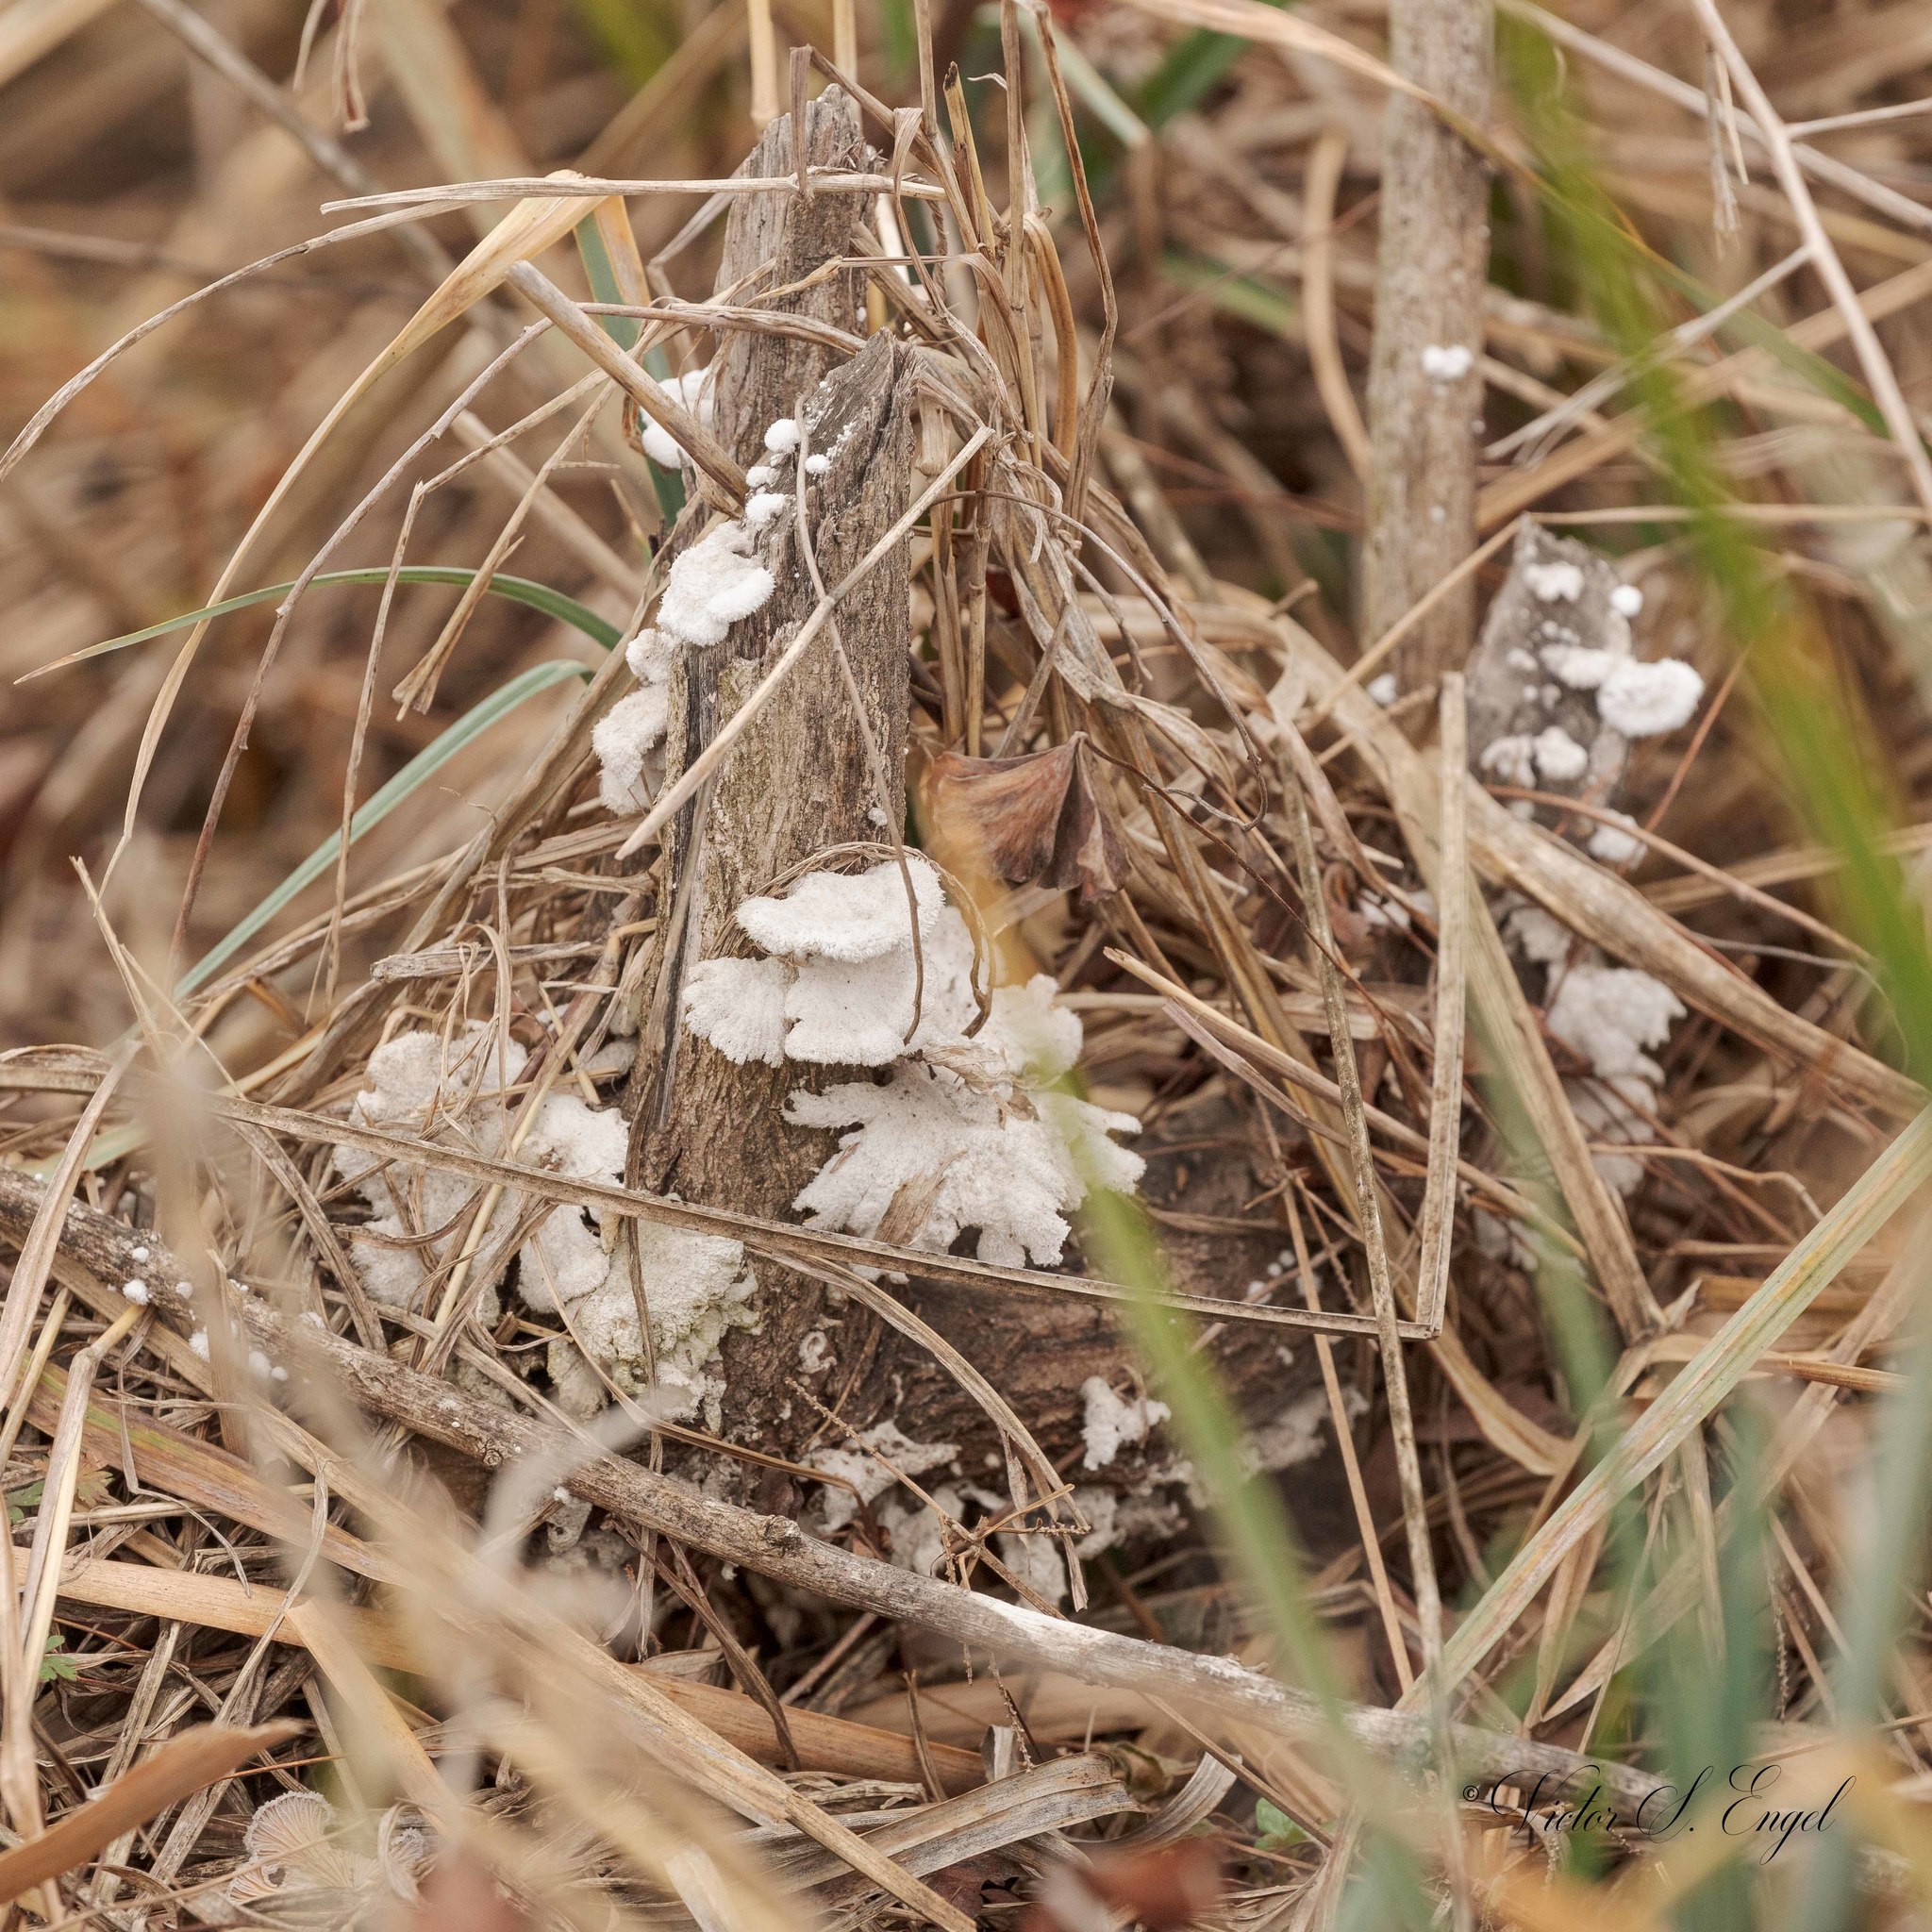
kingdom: Fungi
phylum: Basidiomycota
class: Agaricomycetes
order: Agaricales
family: Schizophyllaceae
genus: Schizophyllum
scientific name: Schizophyllum commune
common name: Common porecrust
